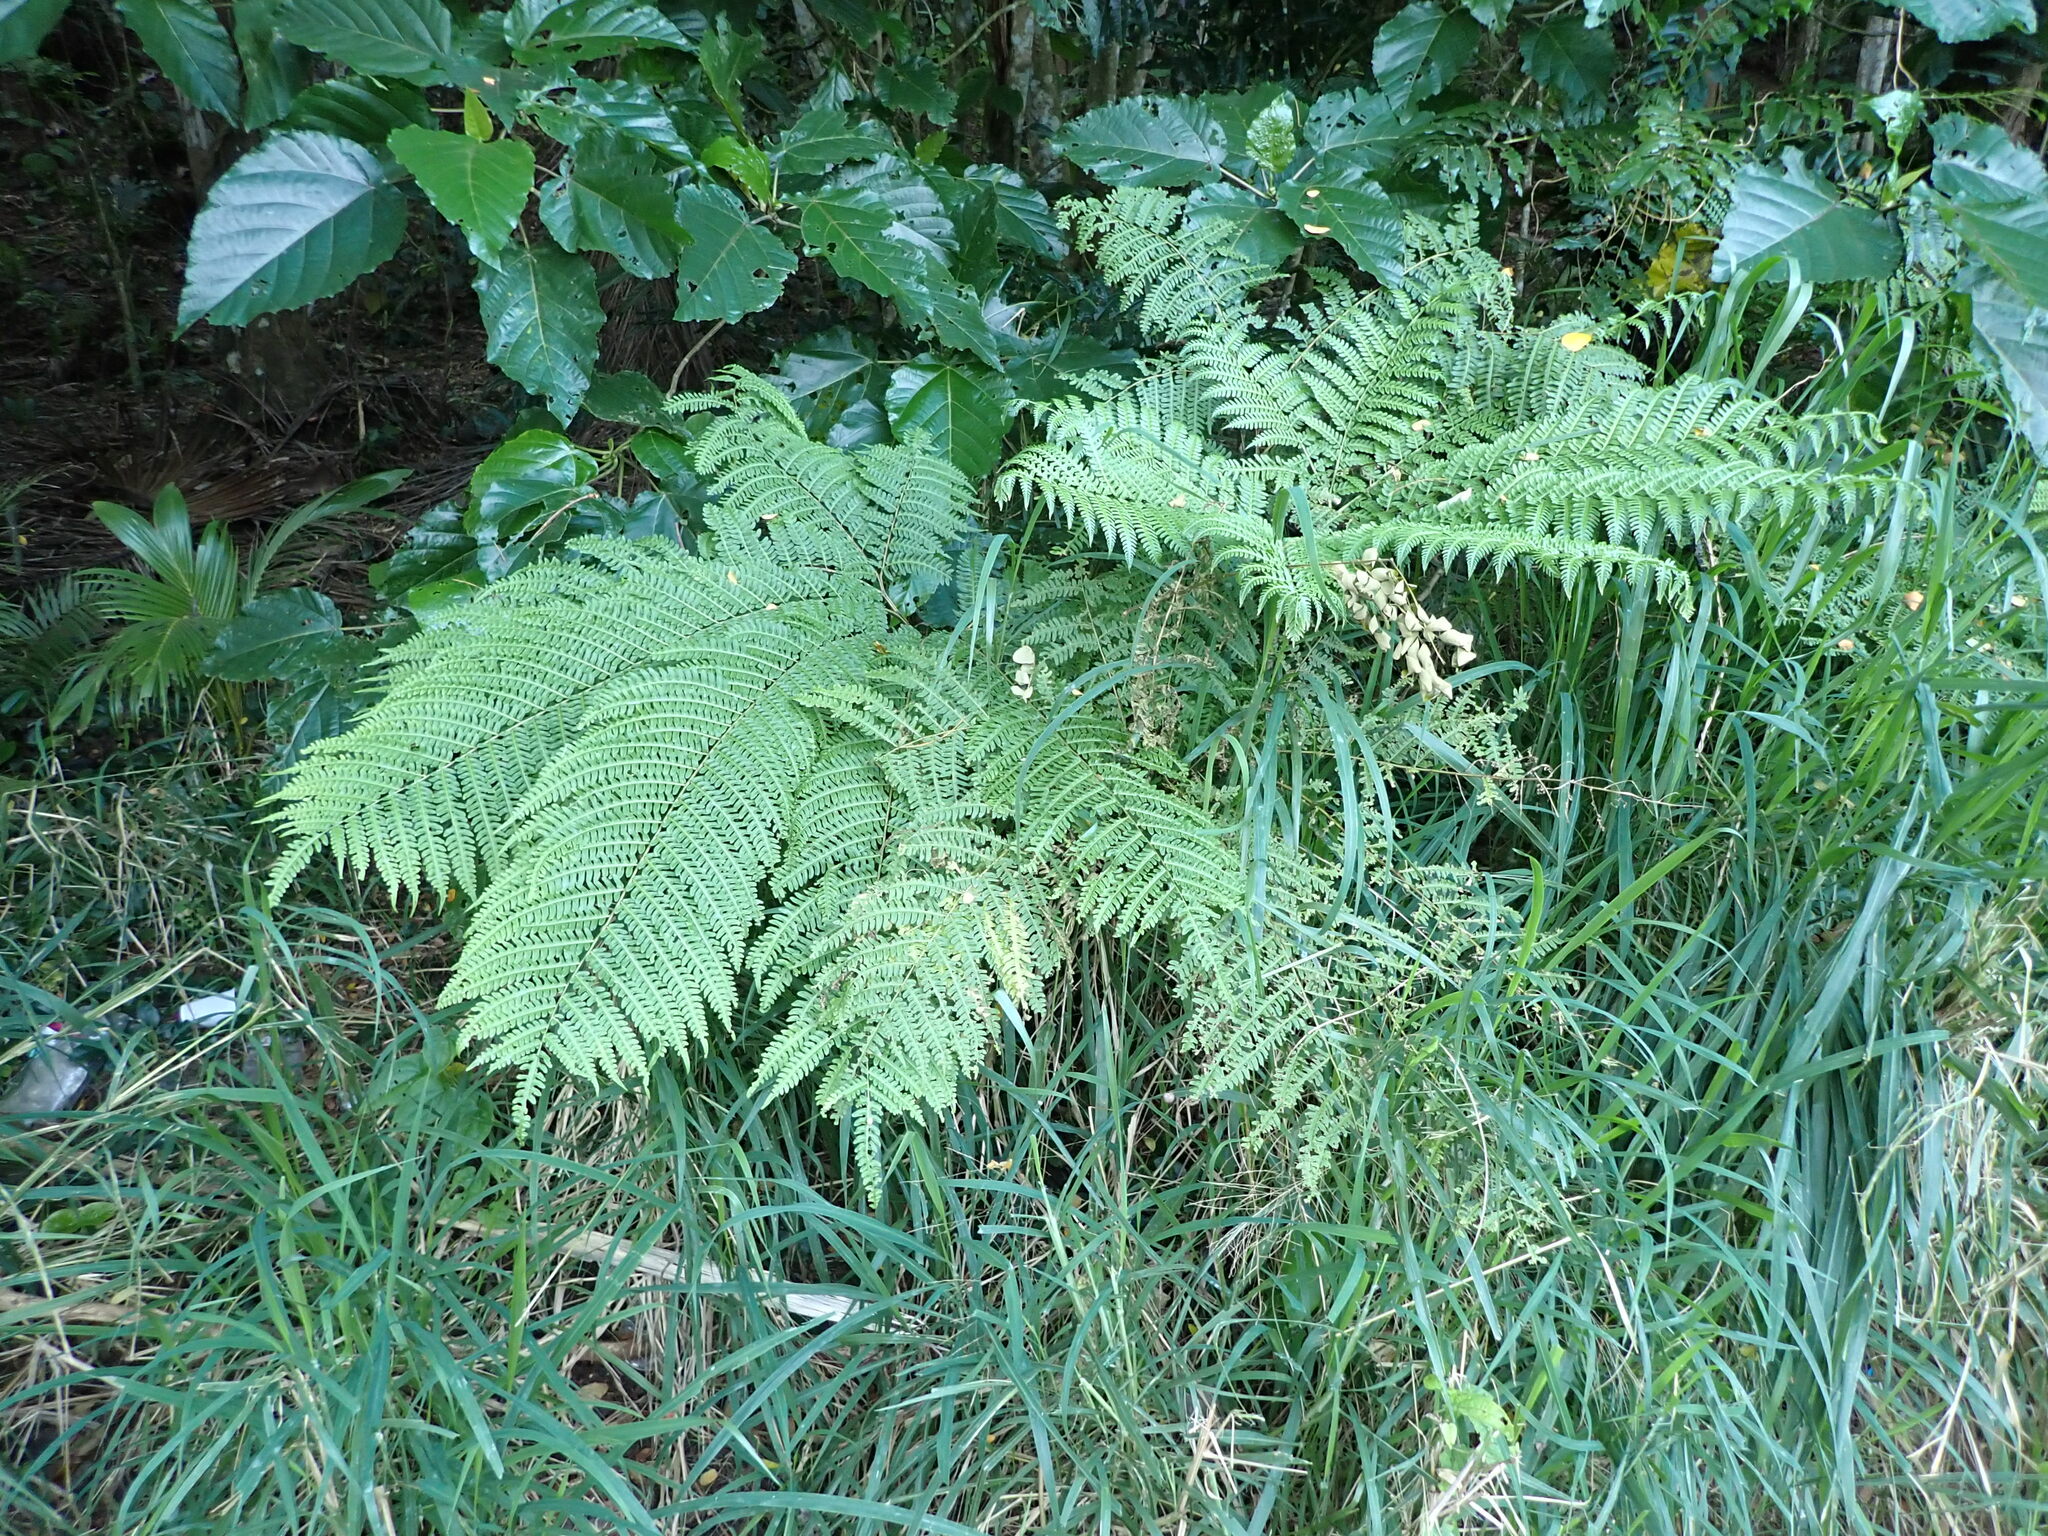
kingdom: Plantae
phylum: Tracheophyta
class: Polypodiopsida
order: Polypodiales
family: Pteridaceae
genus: Pteris
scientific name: Pteris tripartita
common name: Giant brake
